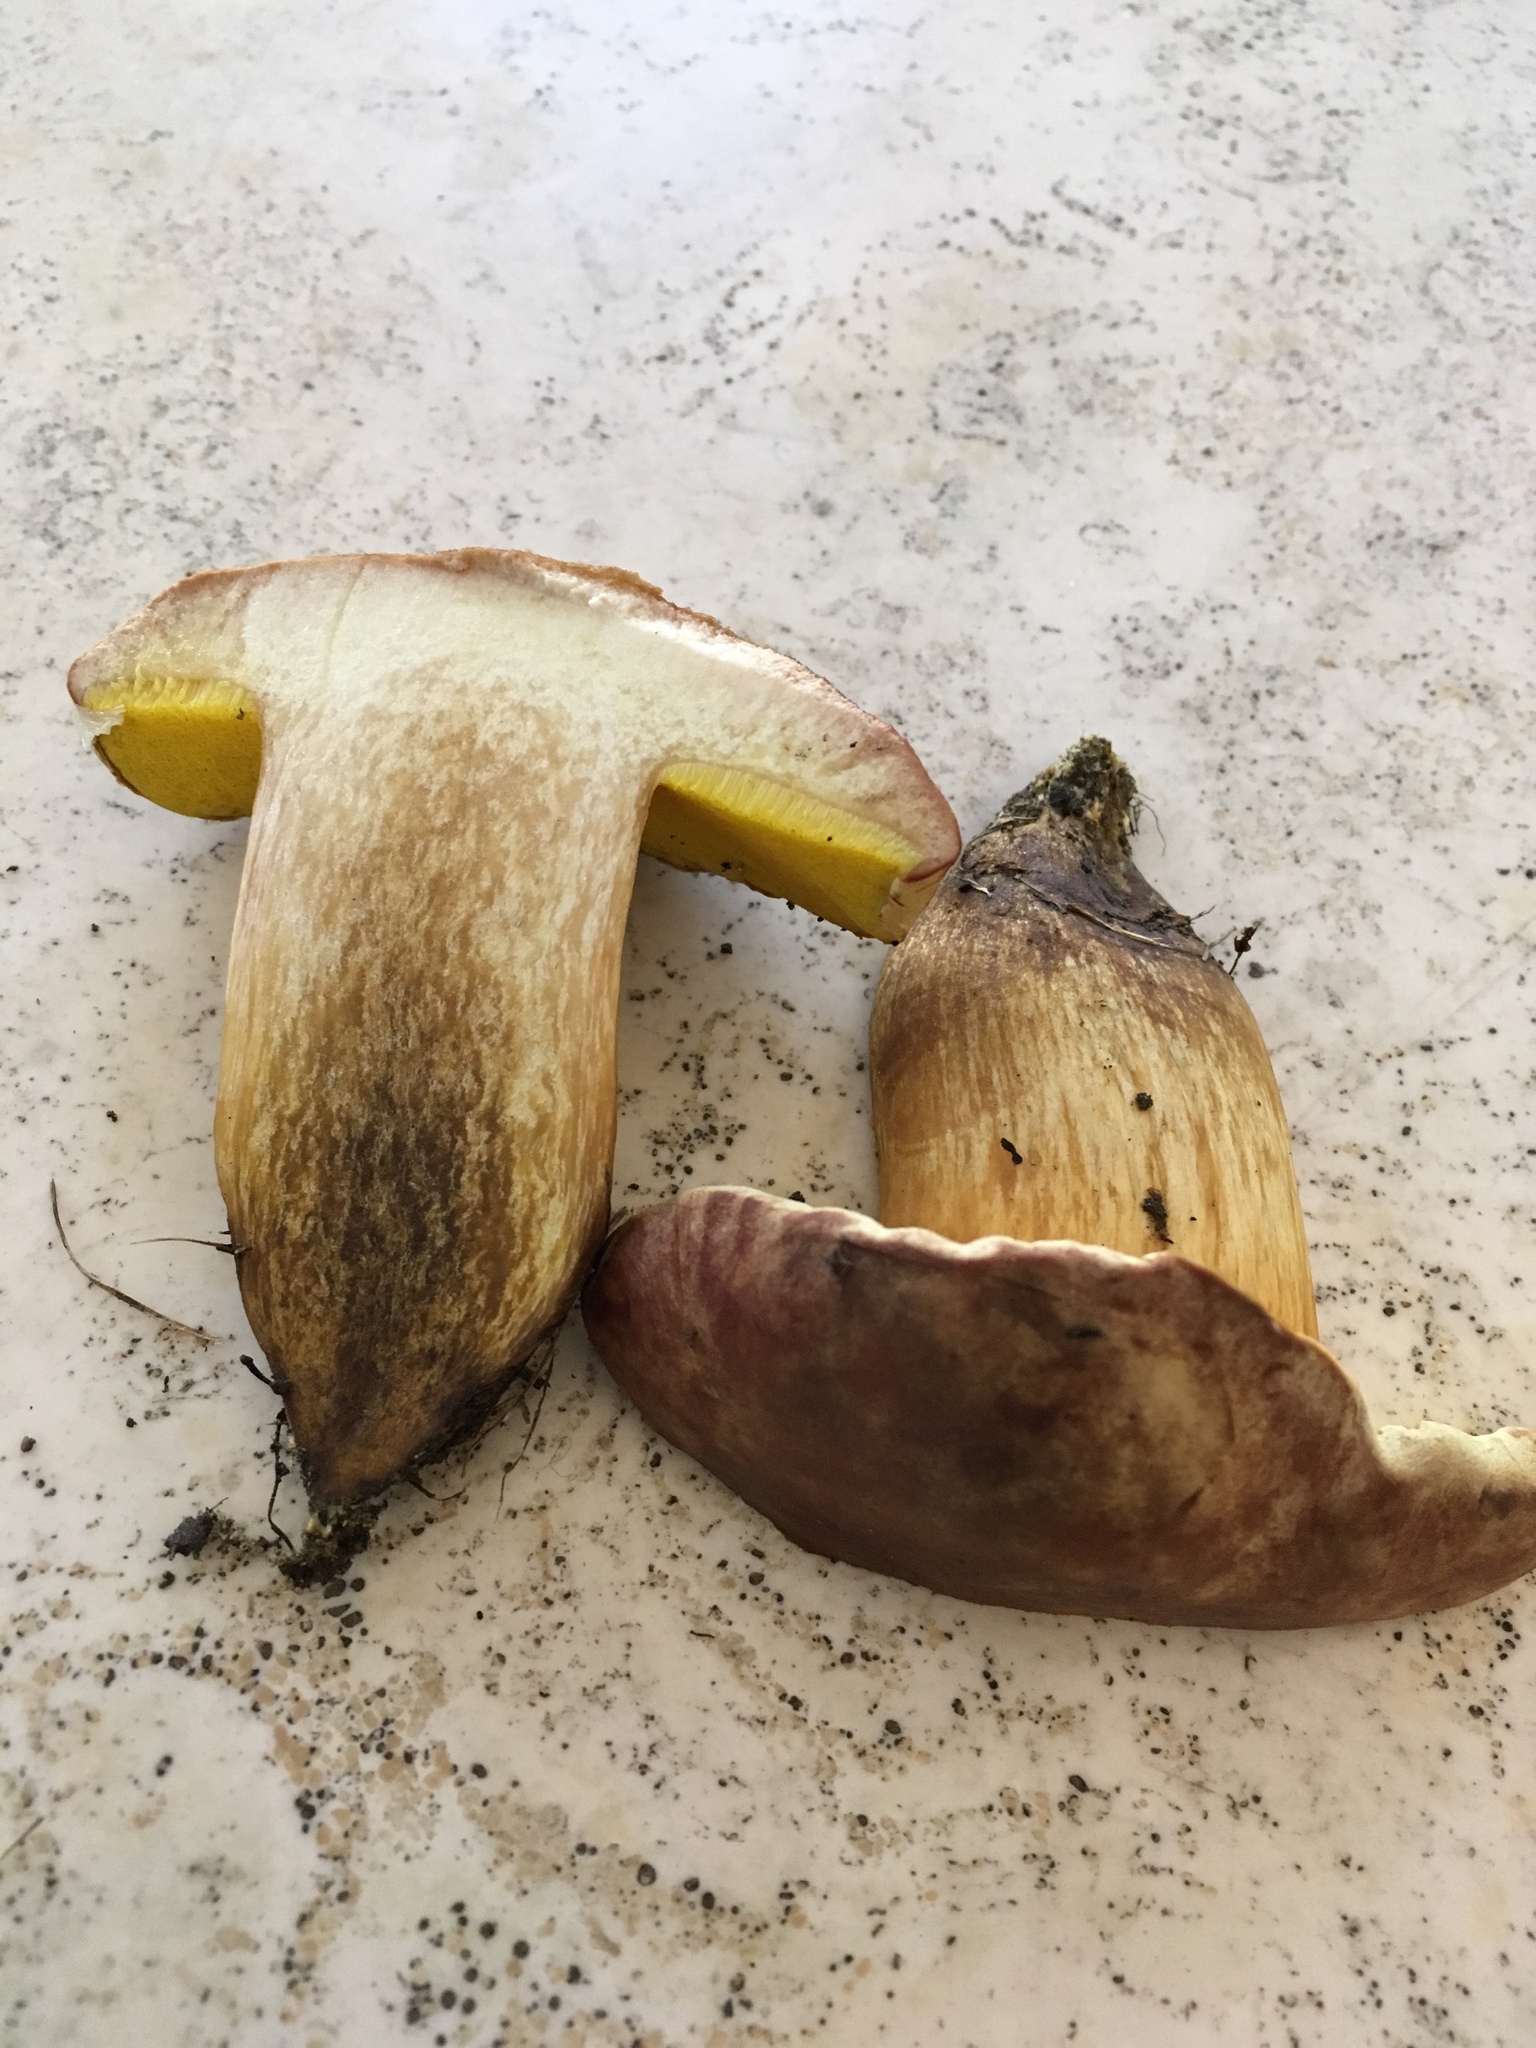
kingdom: Fungi
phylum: Basidiomycota
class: Agaricomycetes
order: Boletales
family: Boletaceae
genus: Aureoboletus
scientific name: Aureoboletus innixus
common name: Clustered brown bolete
